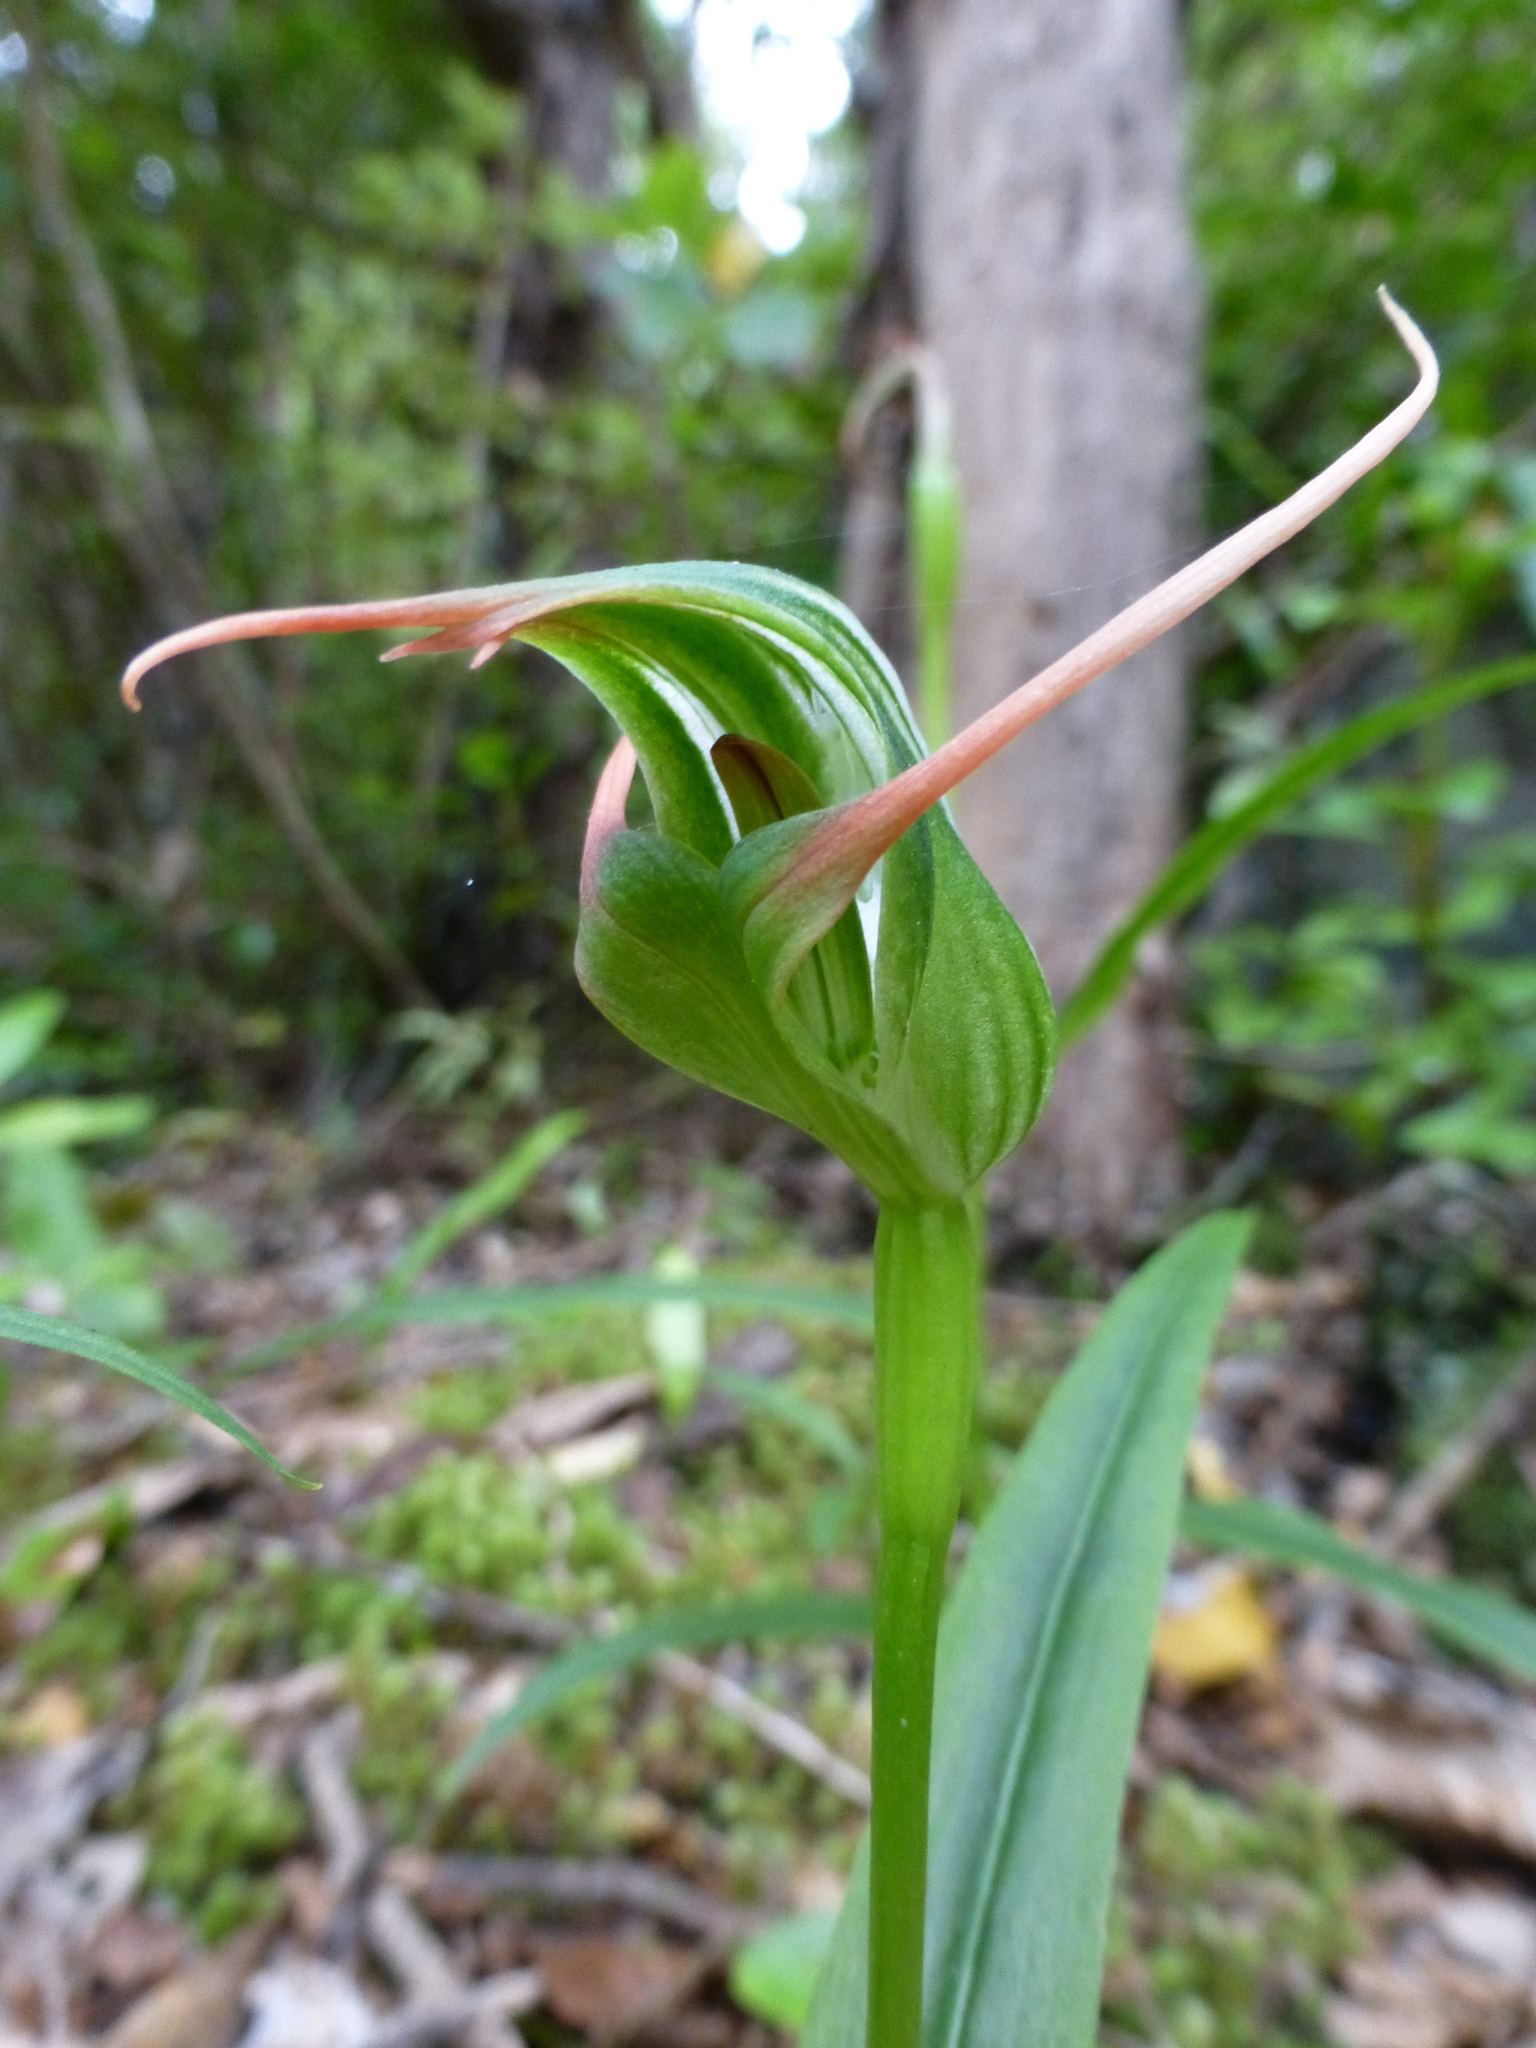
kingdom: Plantae
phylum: Tracheophyta
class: Liliopsida
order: Asparagales
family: Orchidaceae
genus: Pterostylis
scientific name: Pterostylis banksii
